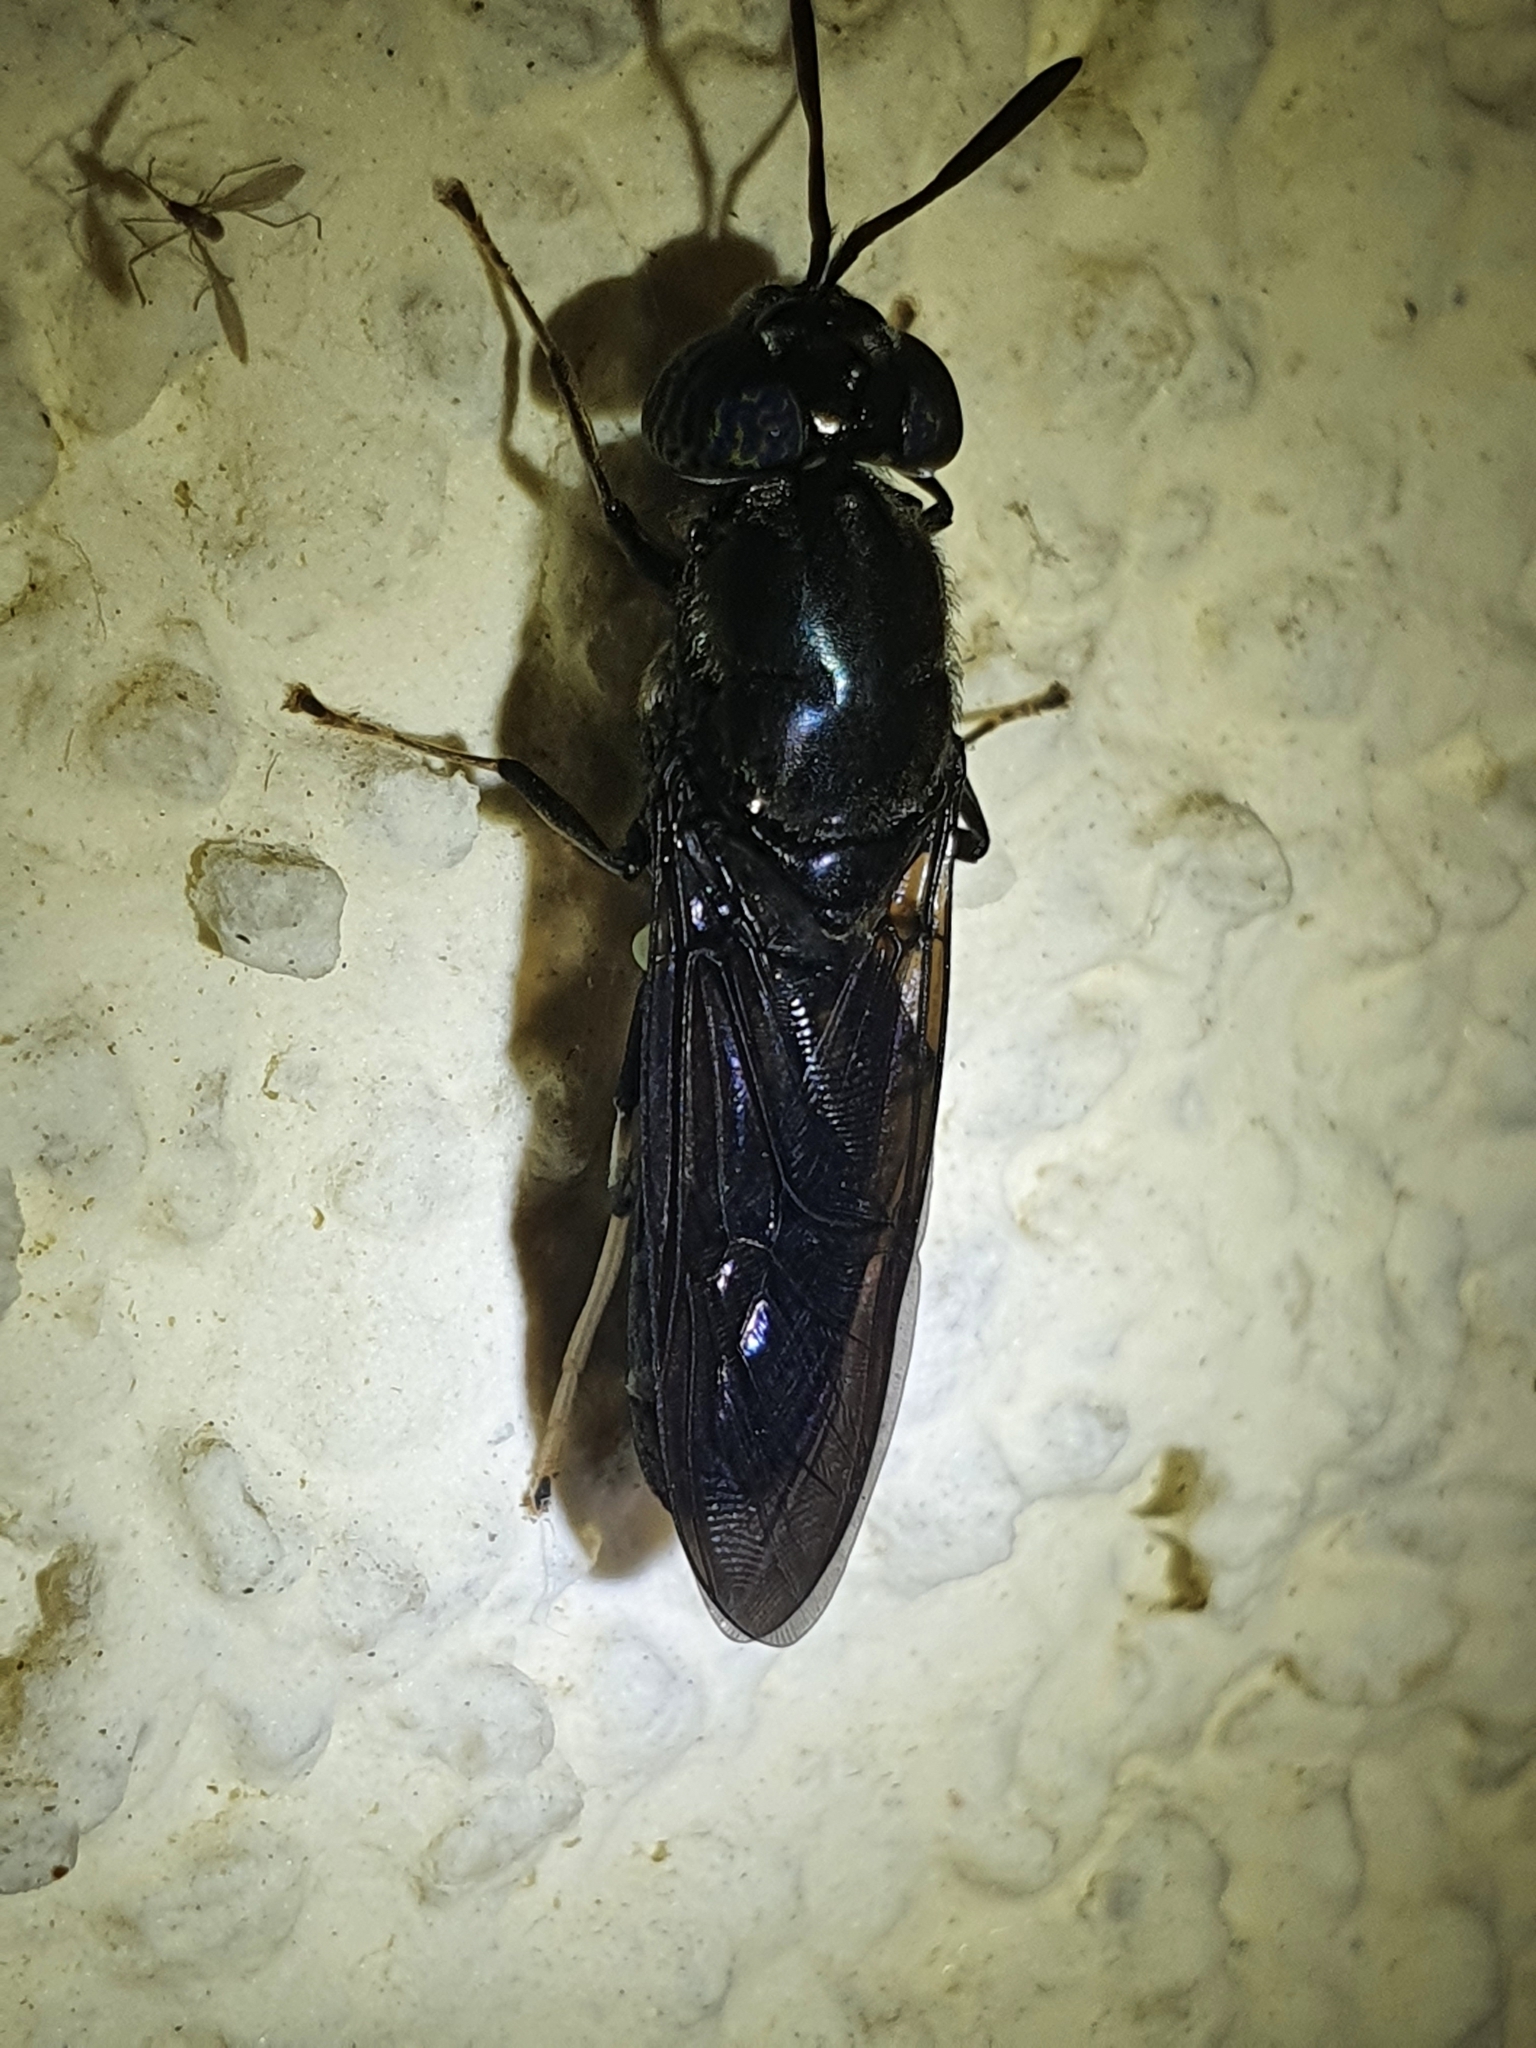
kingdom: Animalia
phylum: Arthropoda
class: Insecta
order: Diptera
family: Stratiomyidae
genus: Hermetia
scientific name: Hermetia illucens
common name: Black soldier fly
